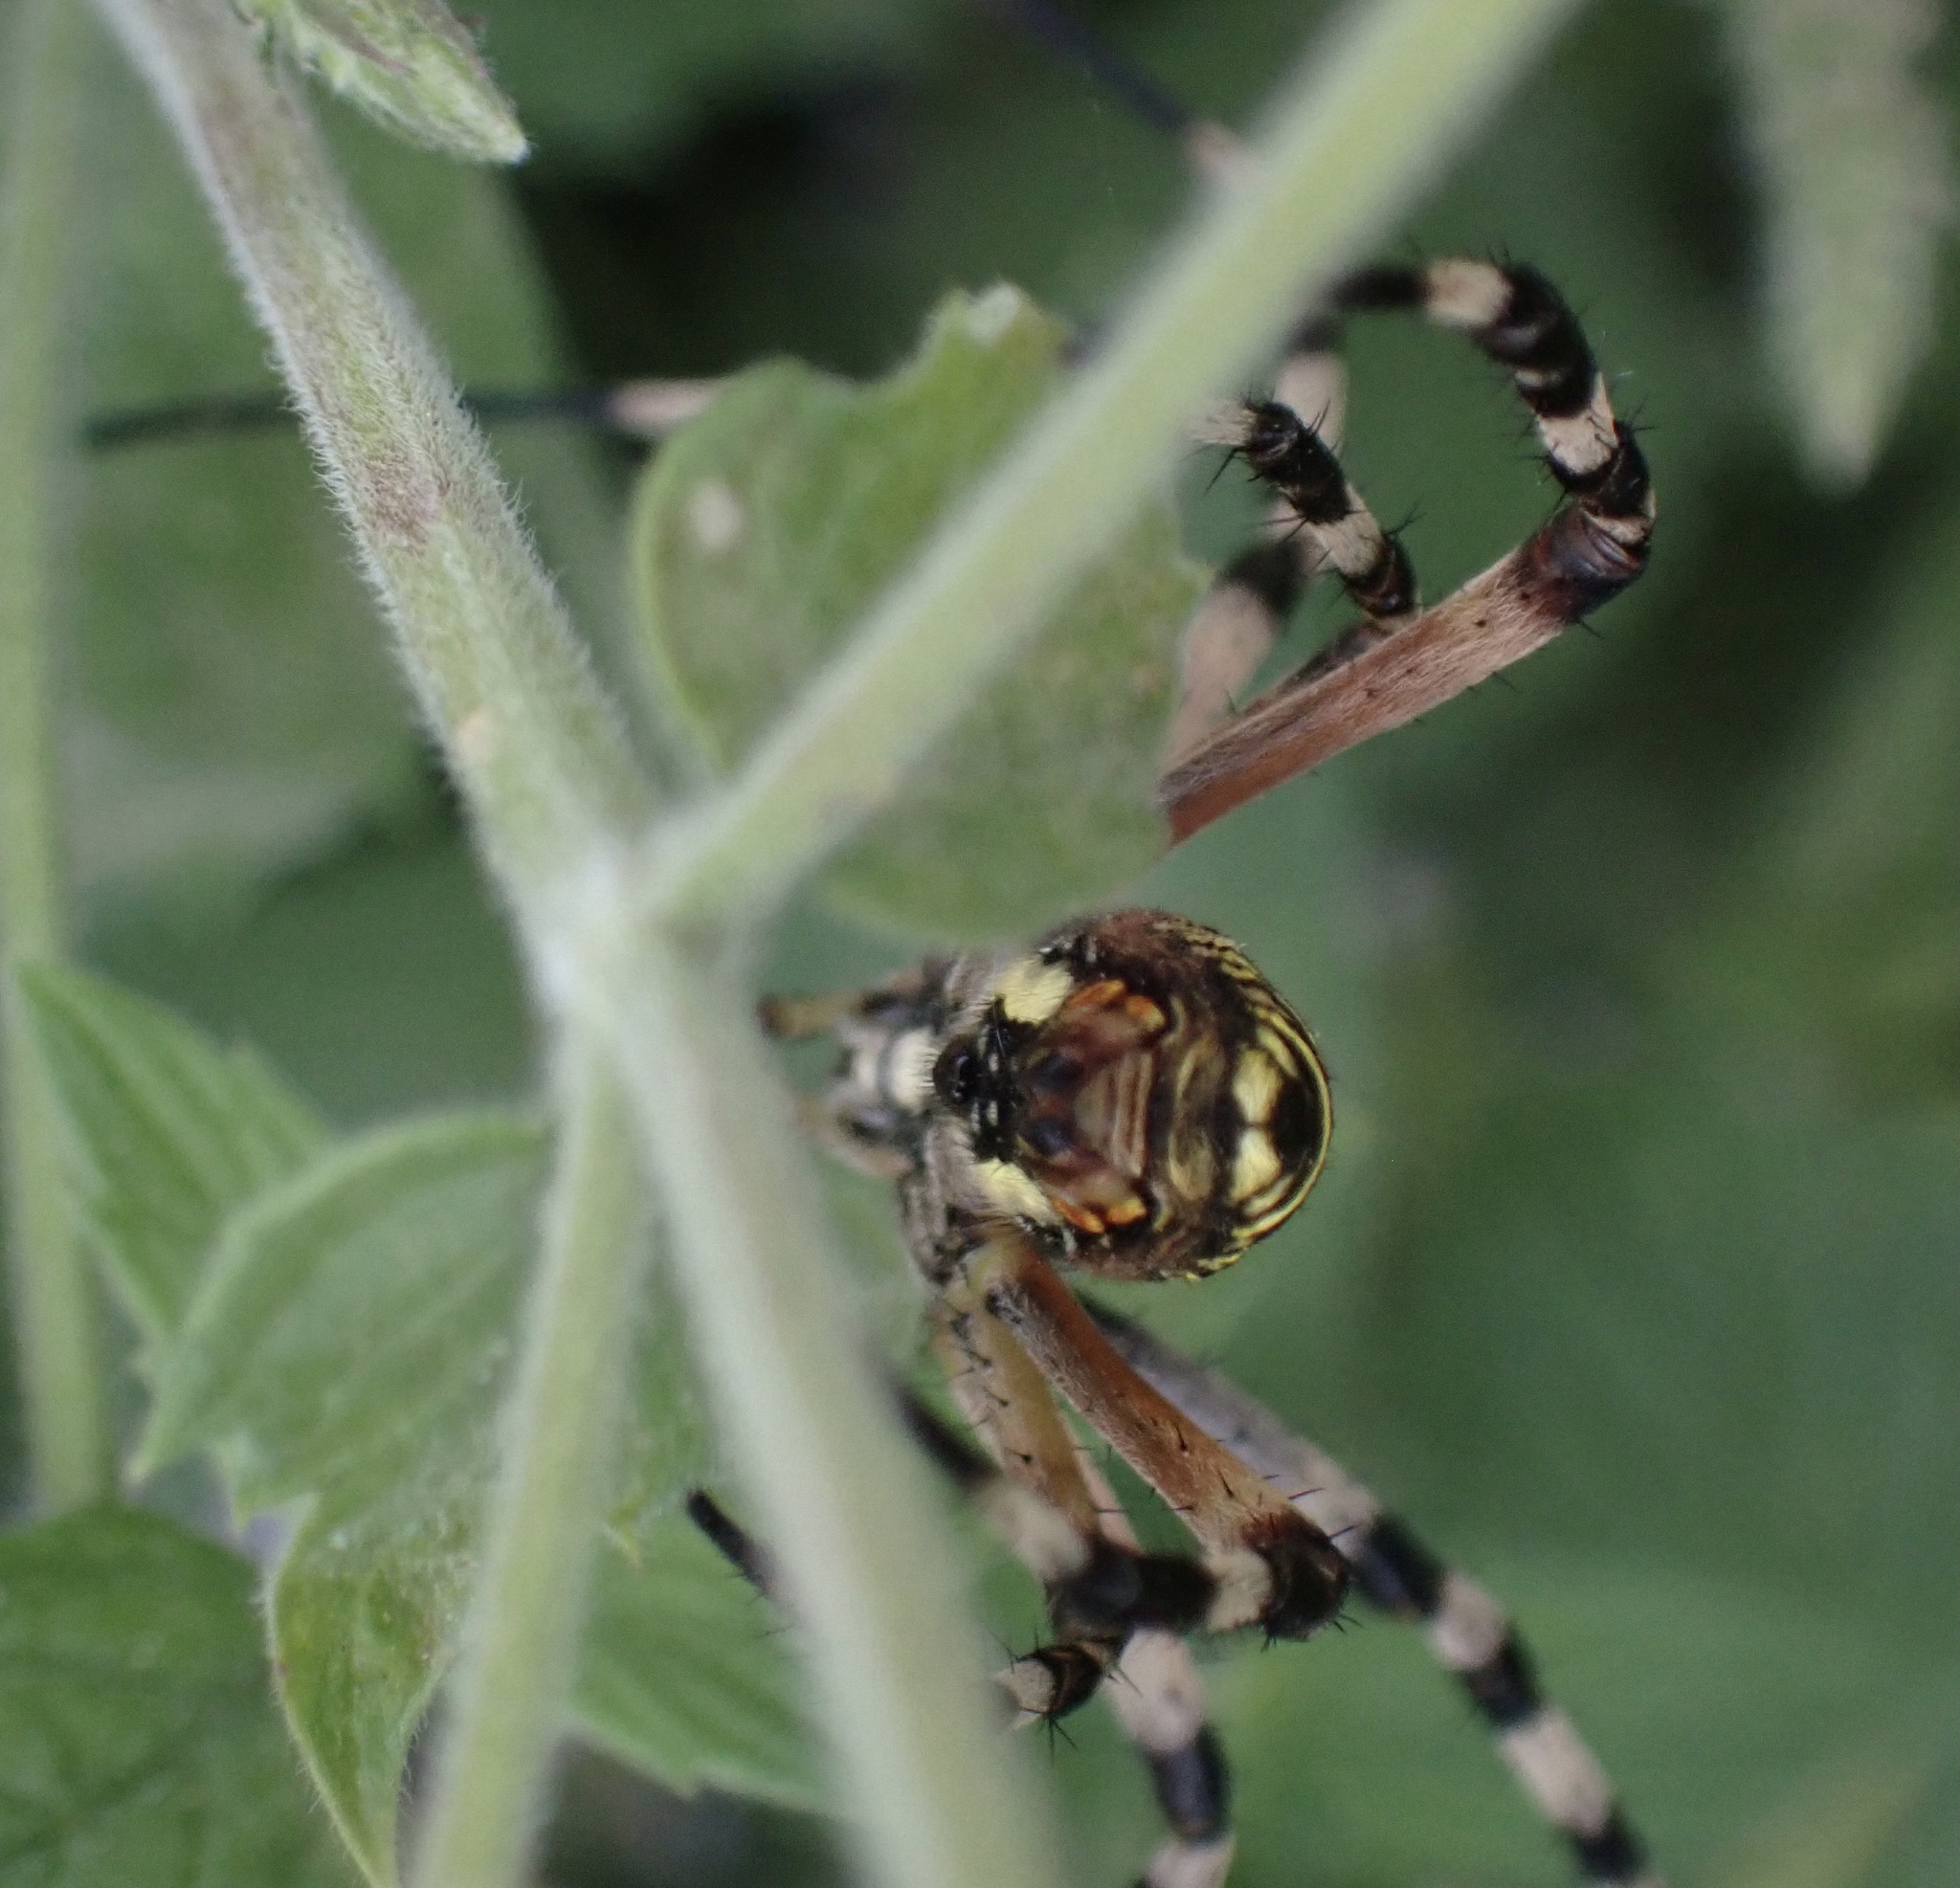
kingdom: Animalia
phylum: Arthropoda
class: Arachnida
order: Araneae
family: Araneidae
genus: Argiope
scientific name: Argiope bruennichi
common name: Wasp spider
